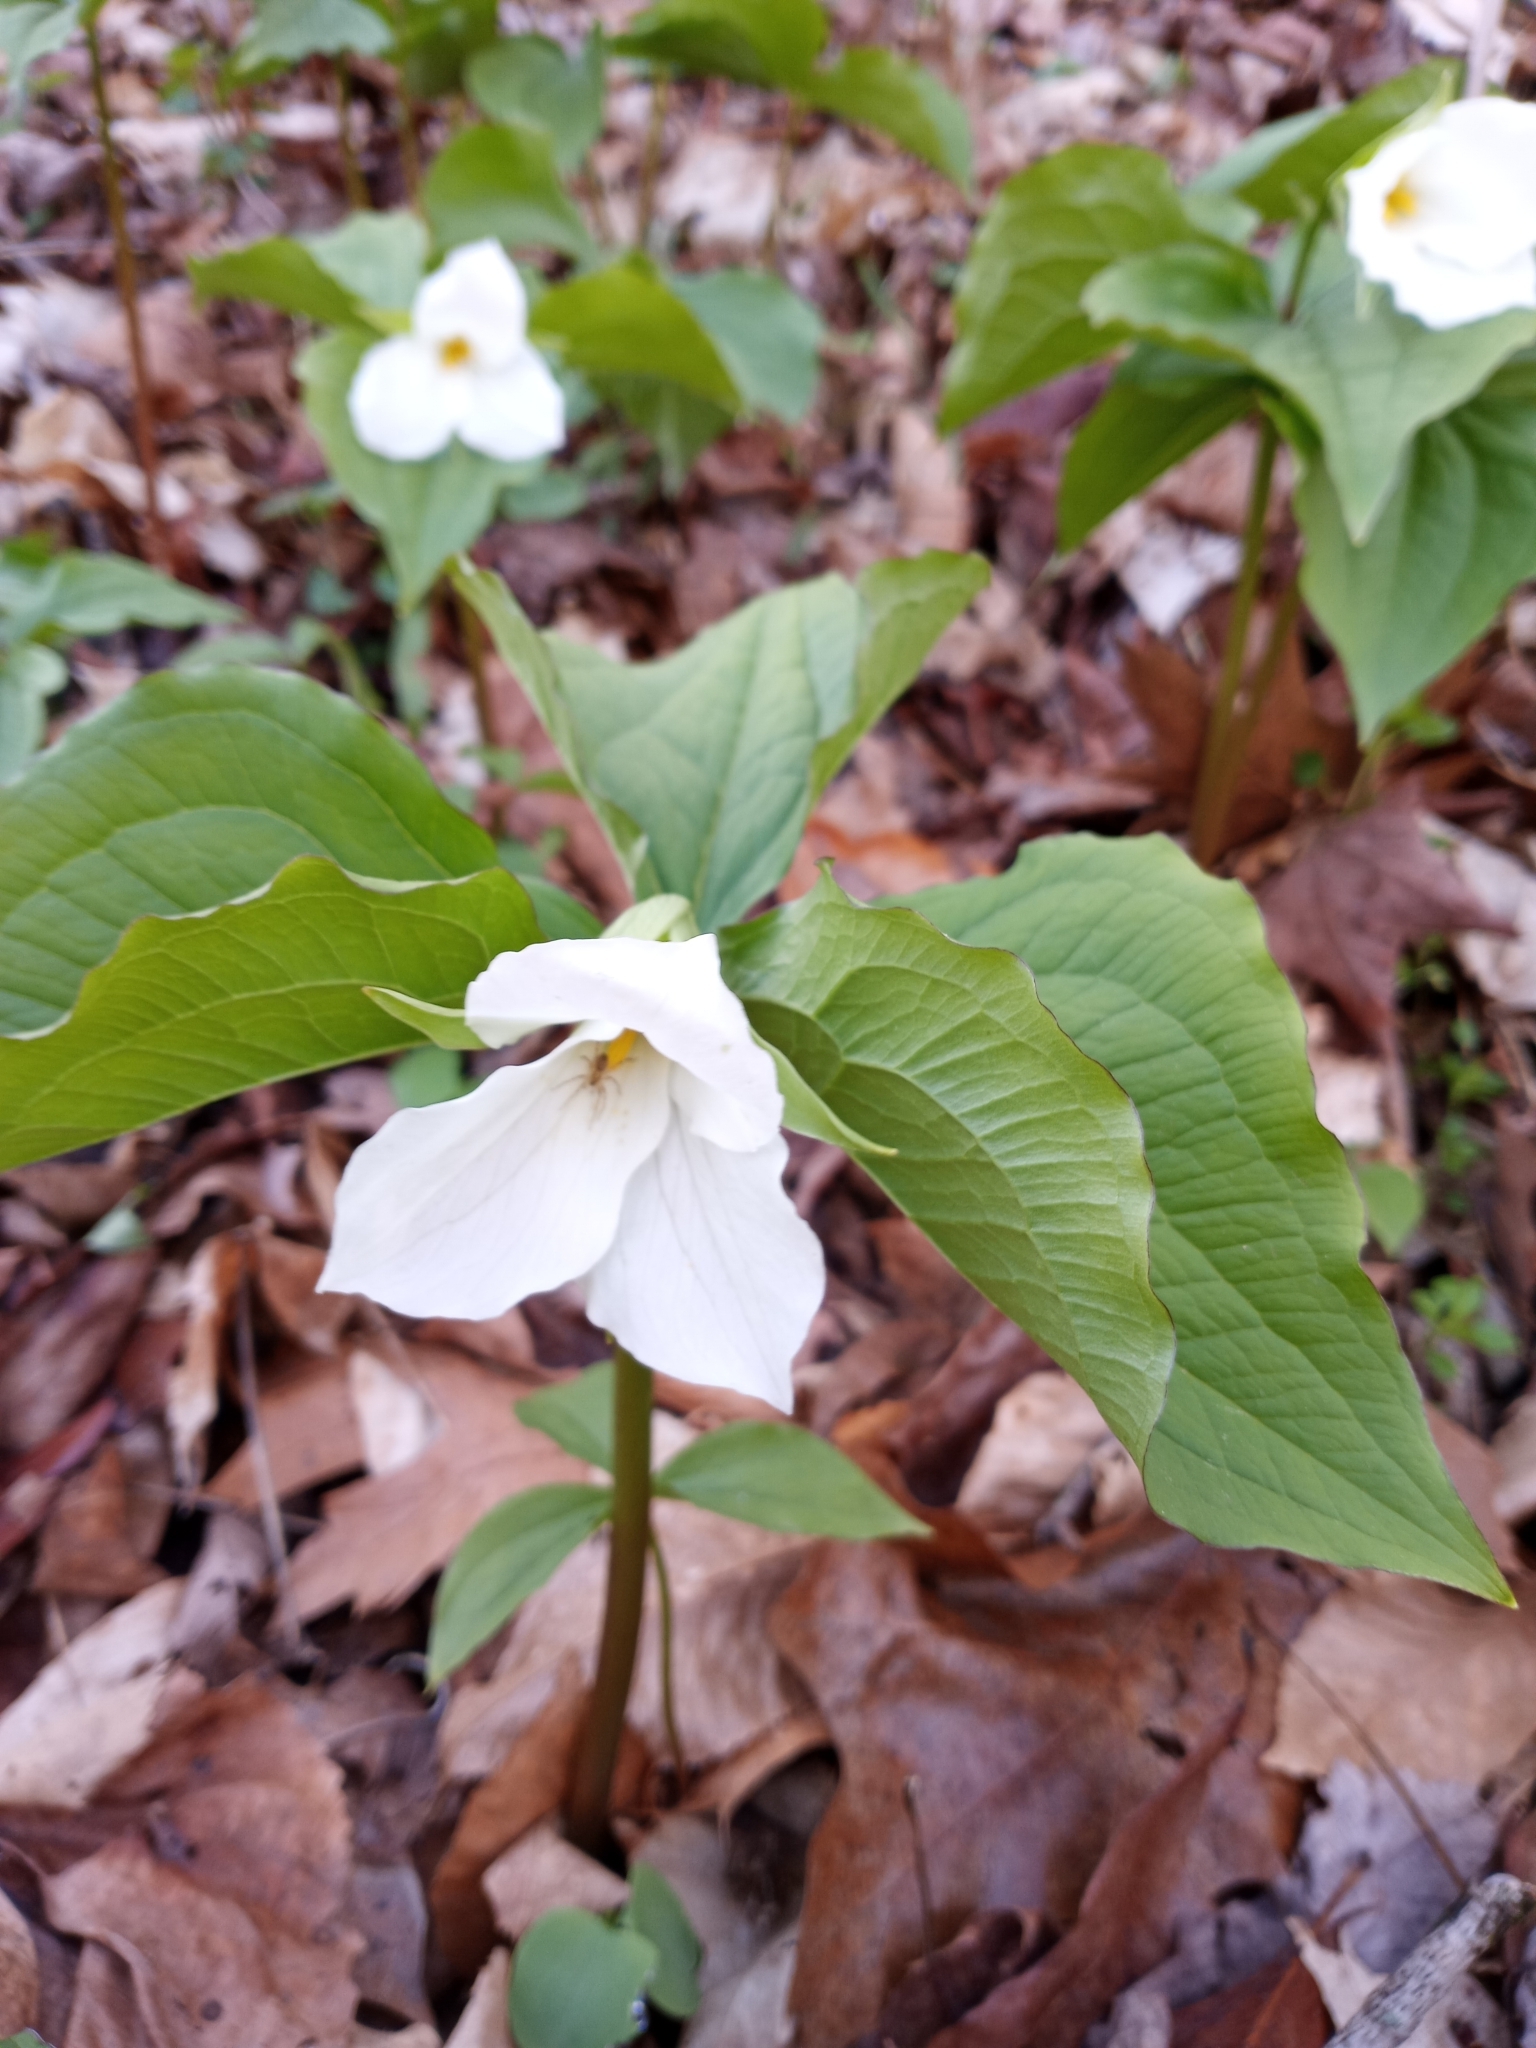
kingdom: Plantae
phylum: Tracheophyta
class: Liliopsida
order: Liliales
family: Melanthiaceae
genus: Trillium
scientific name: Trillium grandiflorum
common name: Great white trillium
